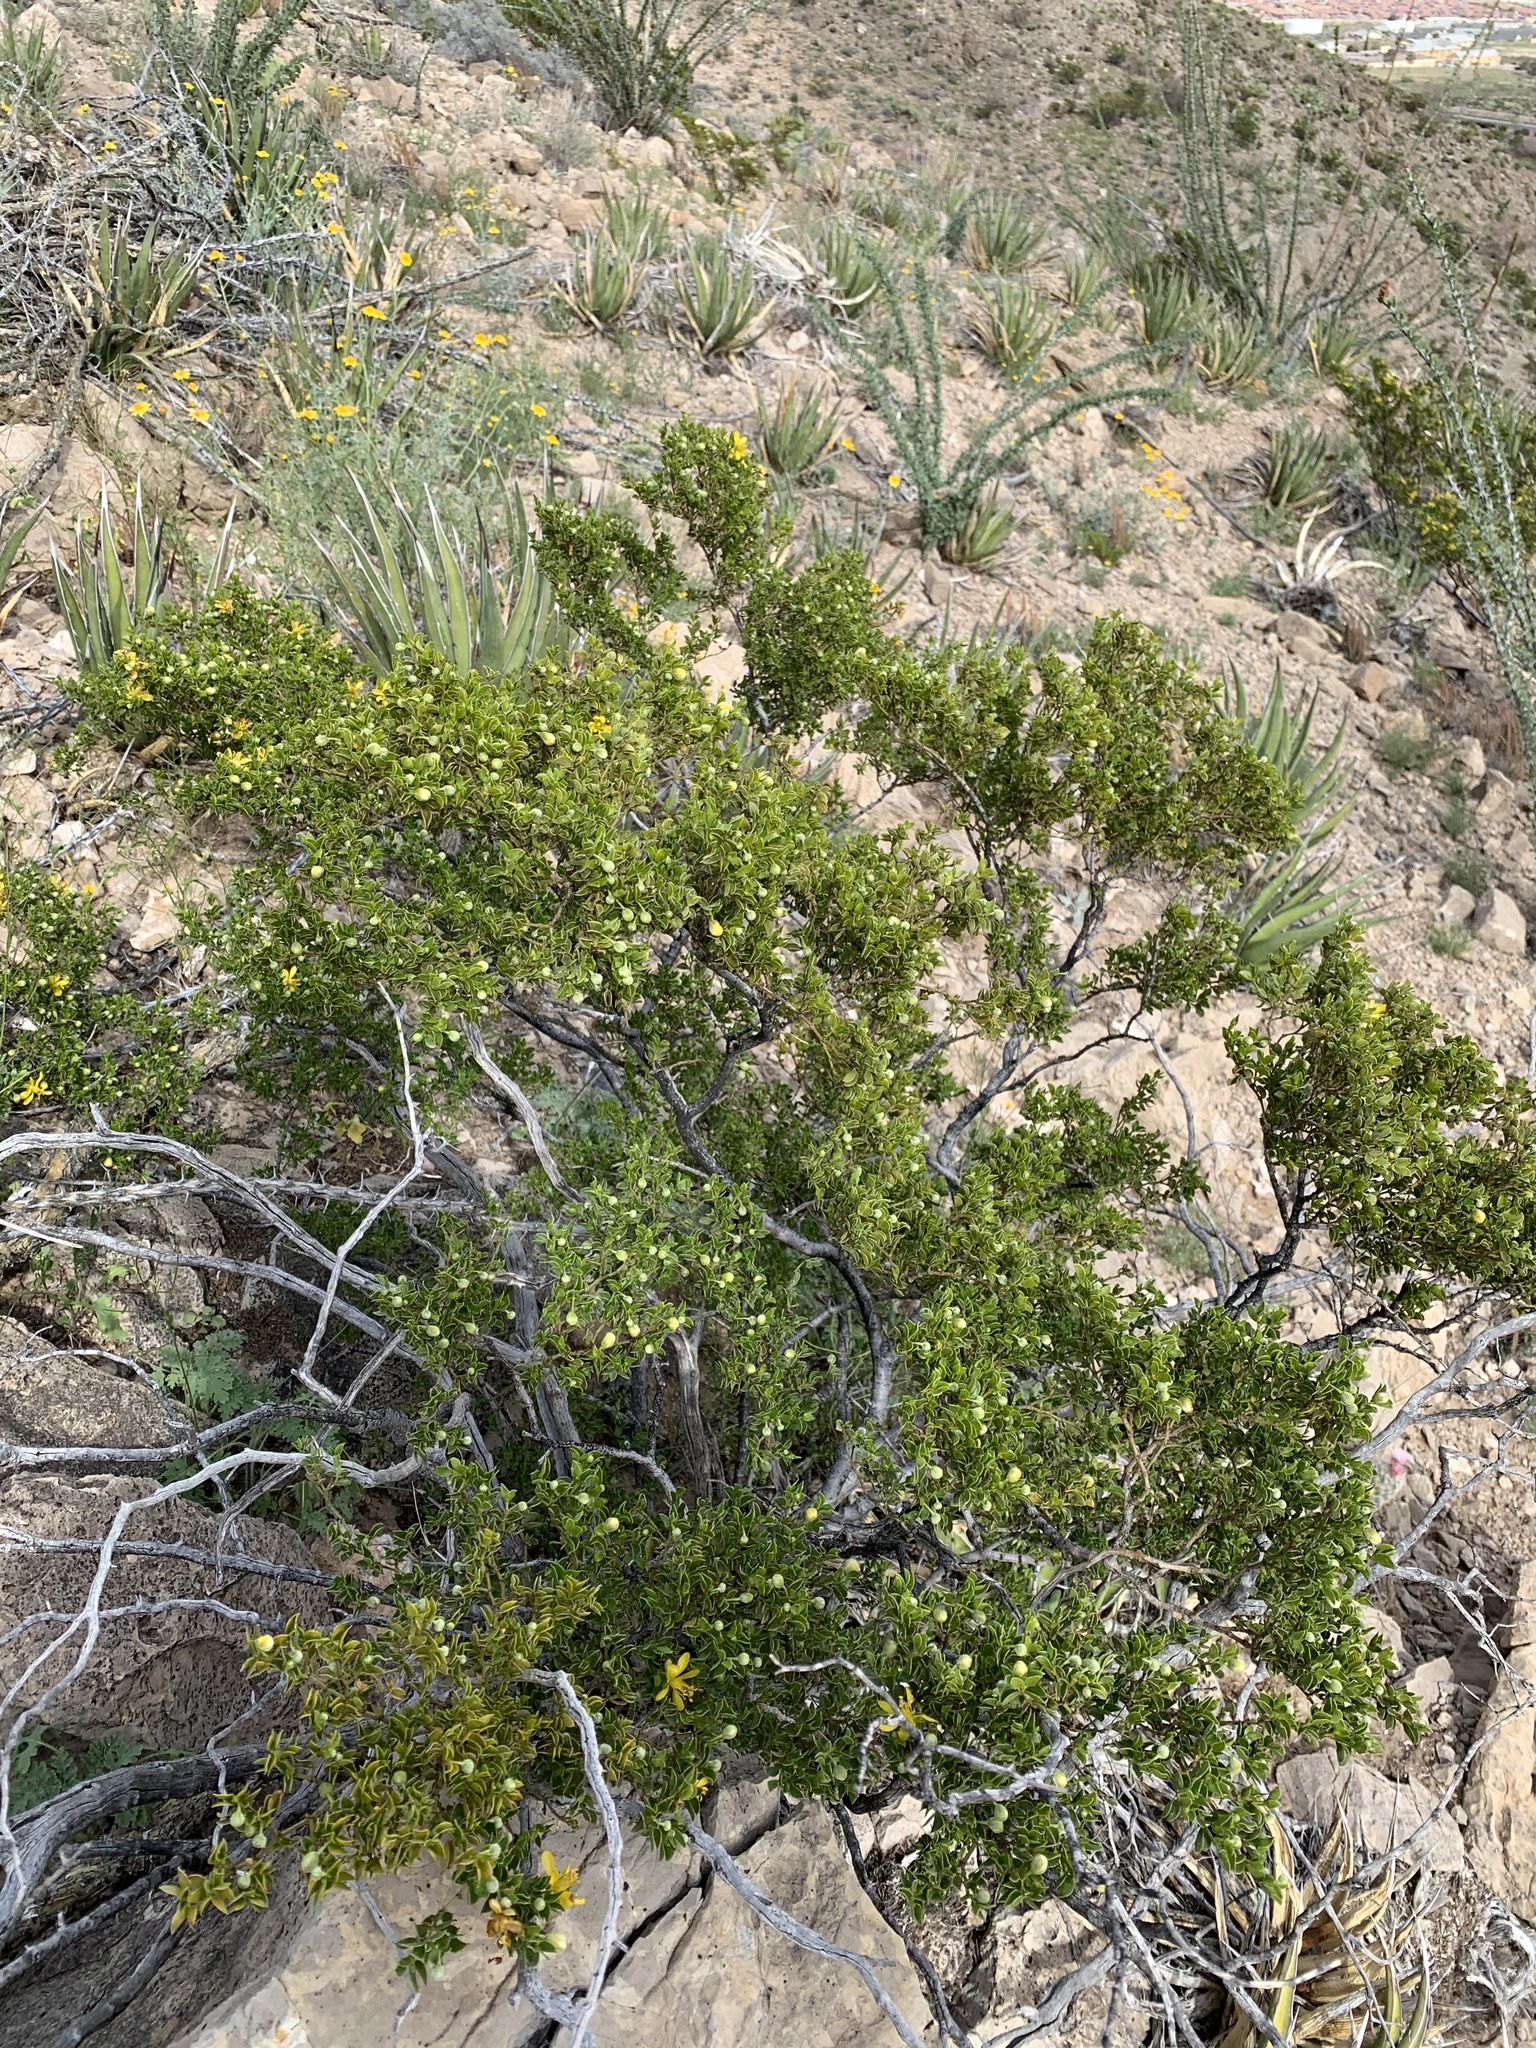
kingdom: Plantae
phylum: Tracheophyta
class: Magnoliopsida
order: Zygophyllales
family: Zygophyllaceae
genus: Larrea
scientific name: Larrea tridentata
